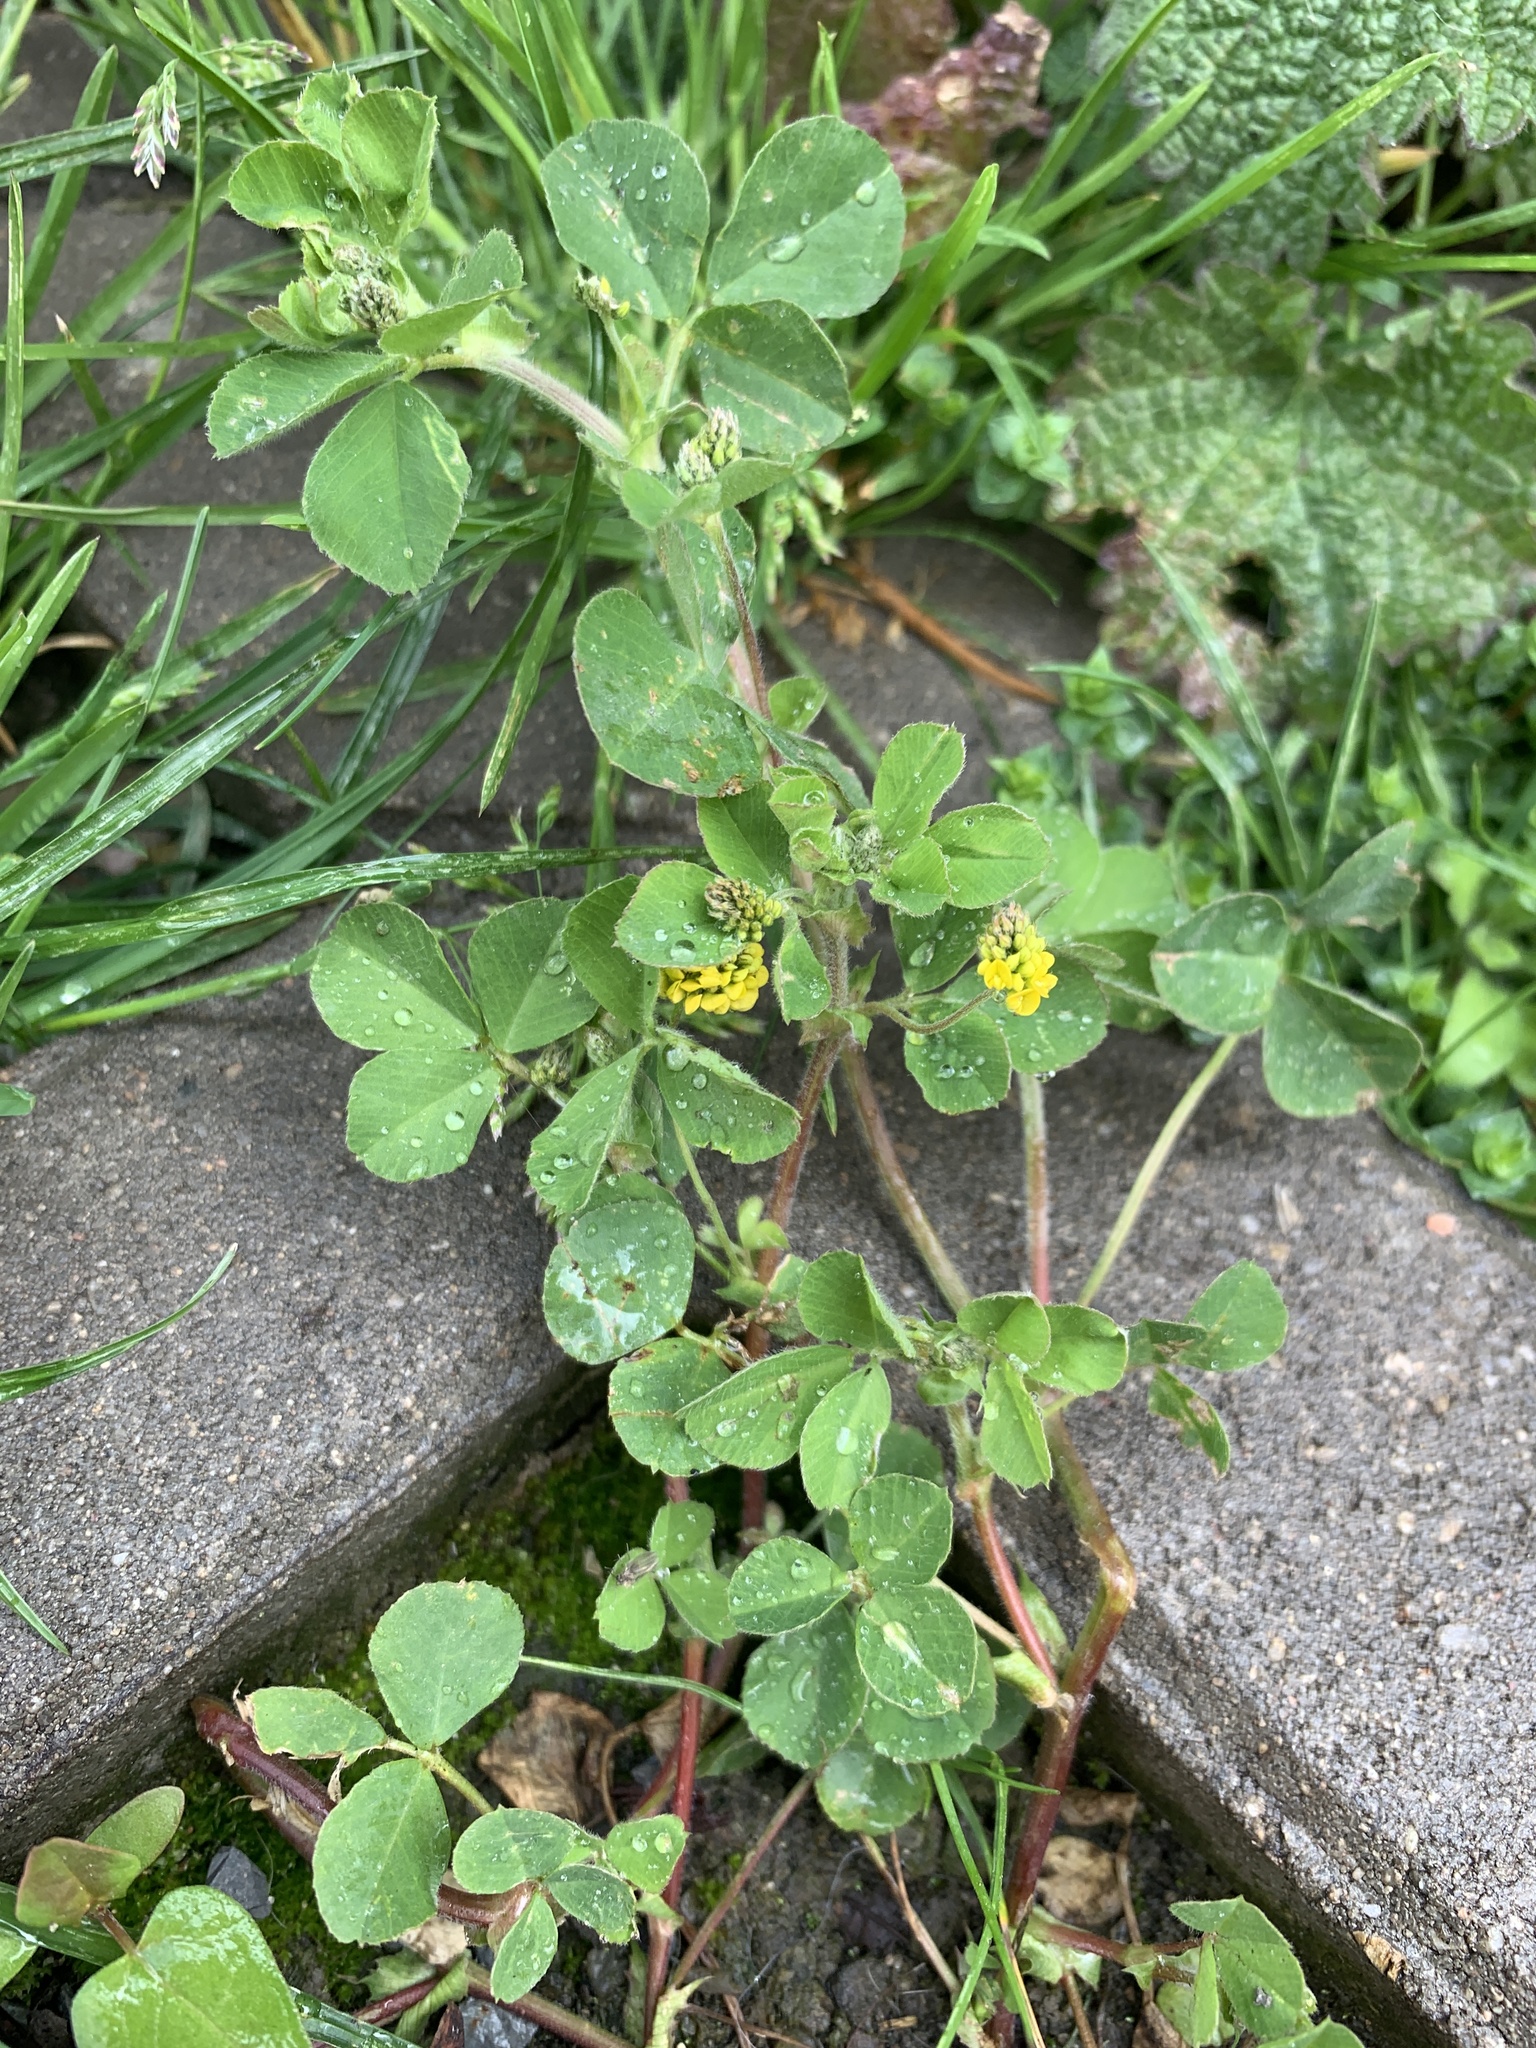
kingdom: Plantae
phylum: Tracheophyta
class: Magnoliopsida
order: Fabales
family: Fabaceae
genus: Medicago
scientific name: Medicago lupulina
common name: Black medick
